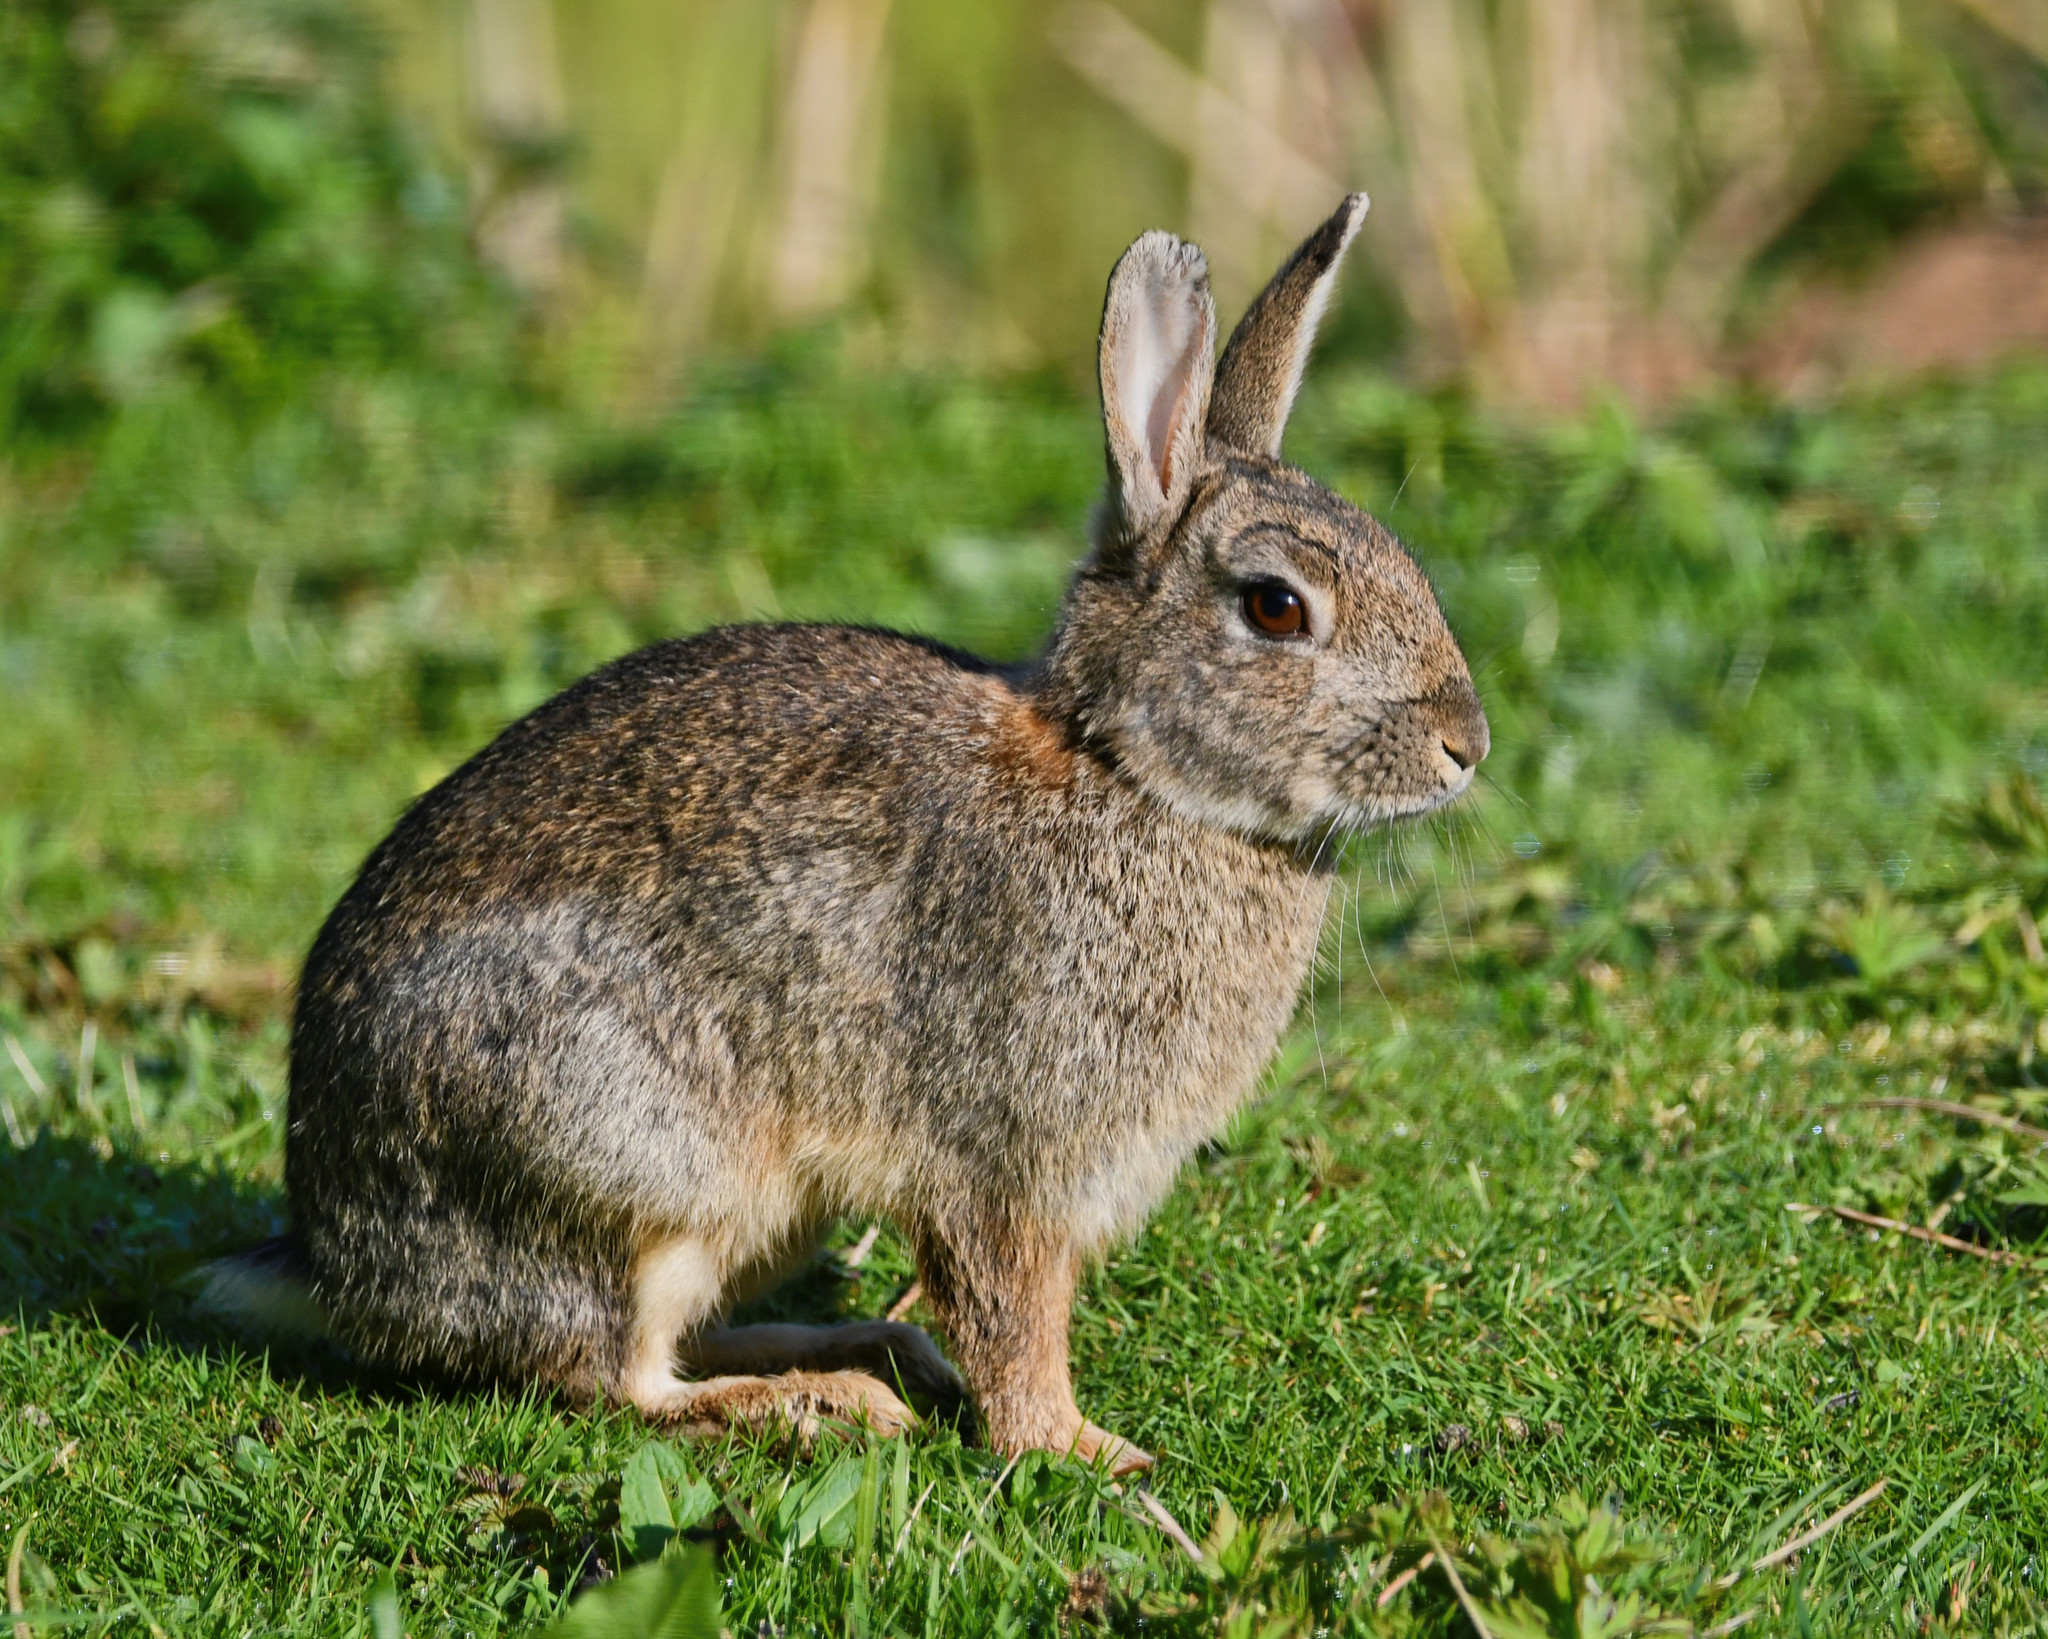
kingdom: Animalia
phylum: Chordata
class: Mammalia
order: Lagomorpha
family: Leporidae
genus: Oryctolagus
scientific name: Oryctolagus cuniculus
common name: European rabbit
